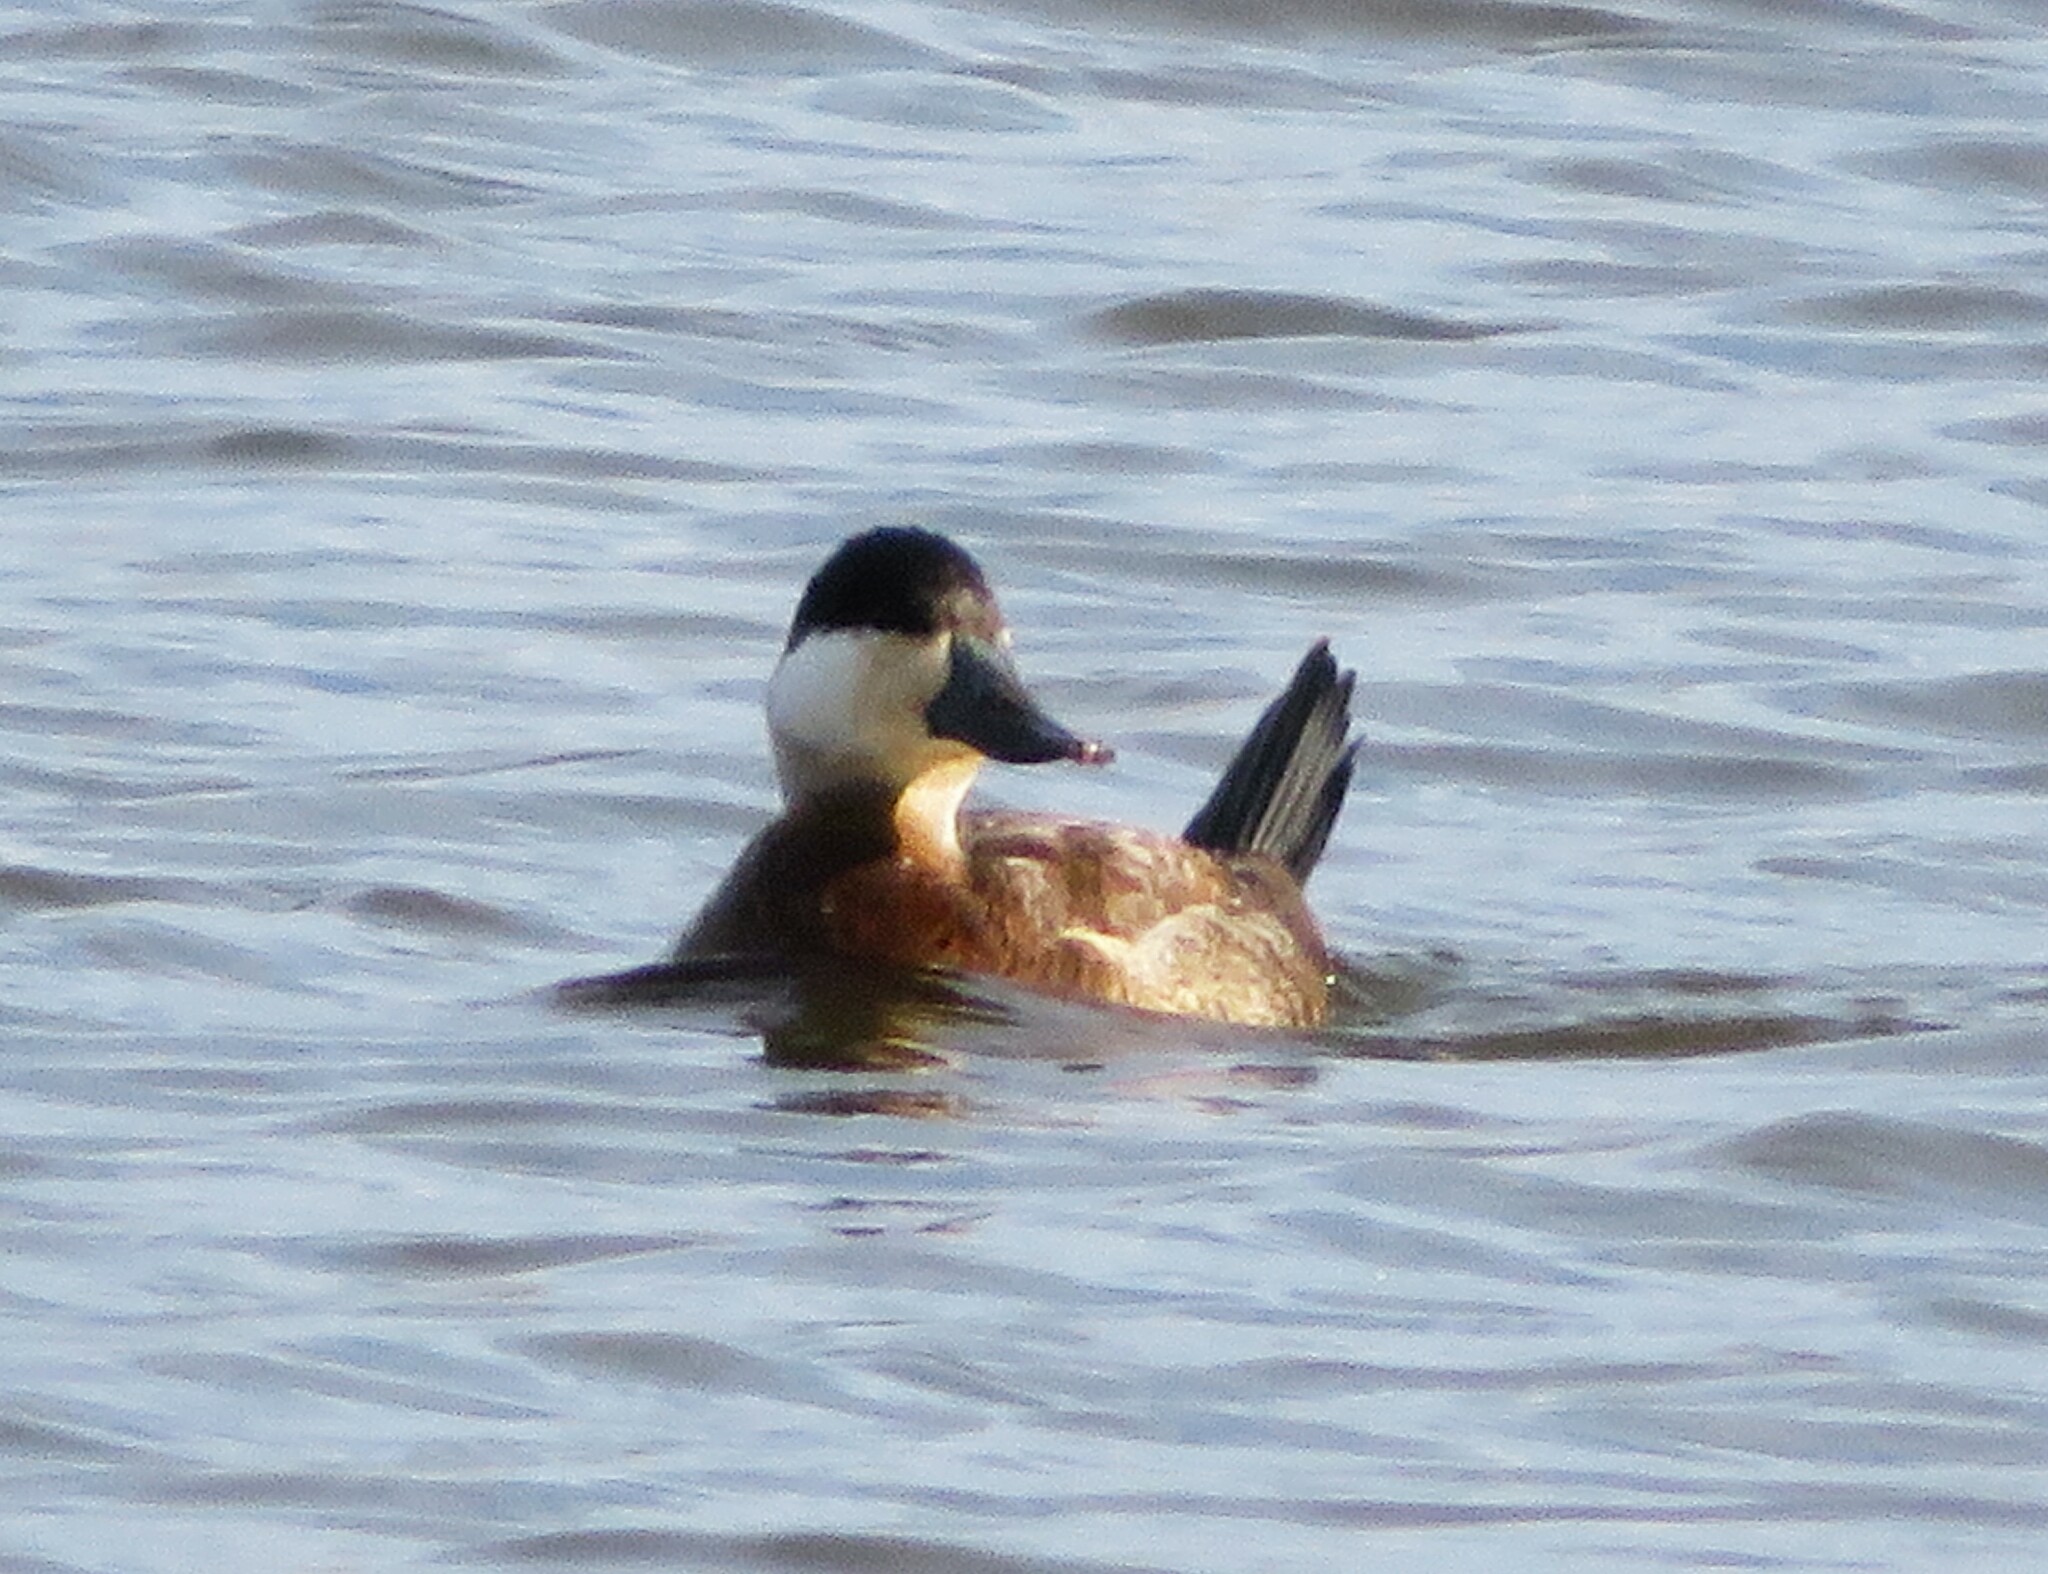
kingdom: Animalia
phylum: Chordata
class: Aves
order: Anseriformes
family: Anatidae
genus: Oxyura
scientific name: Oxyura jamaicensis
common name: Ruddy duck
